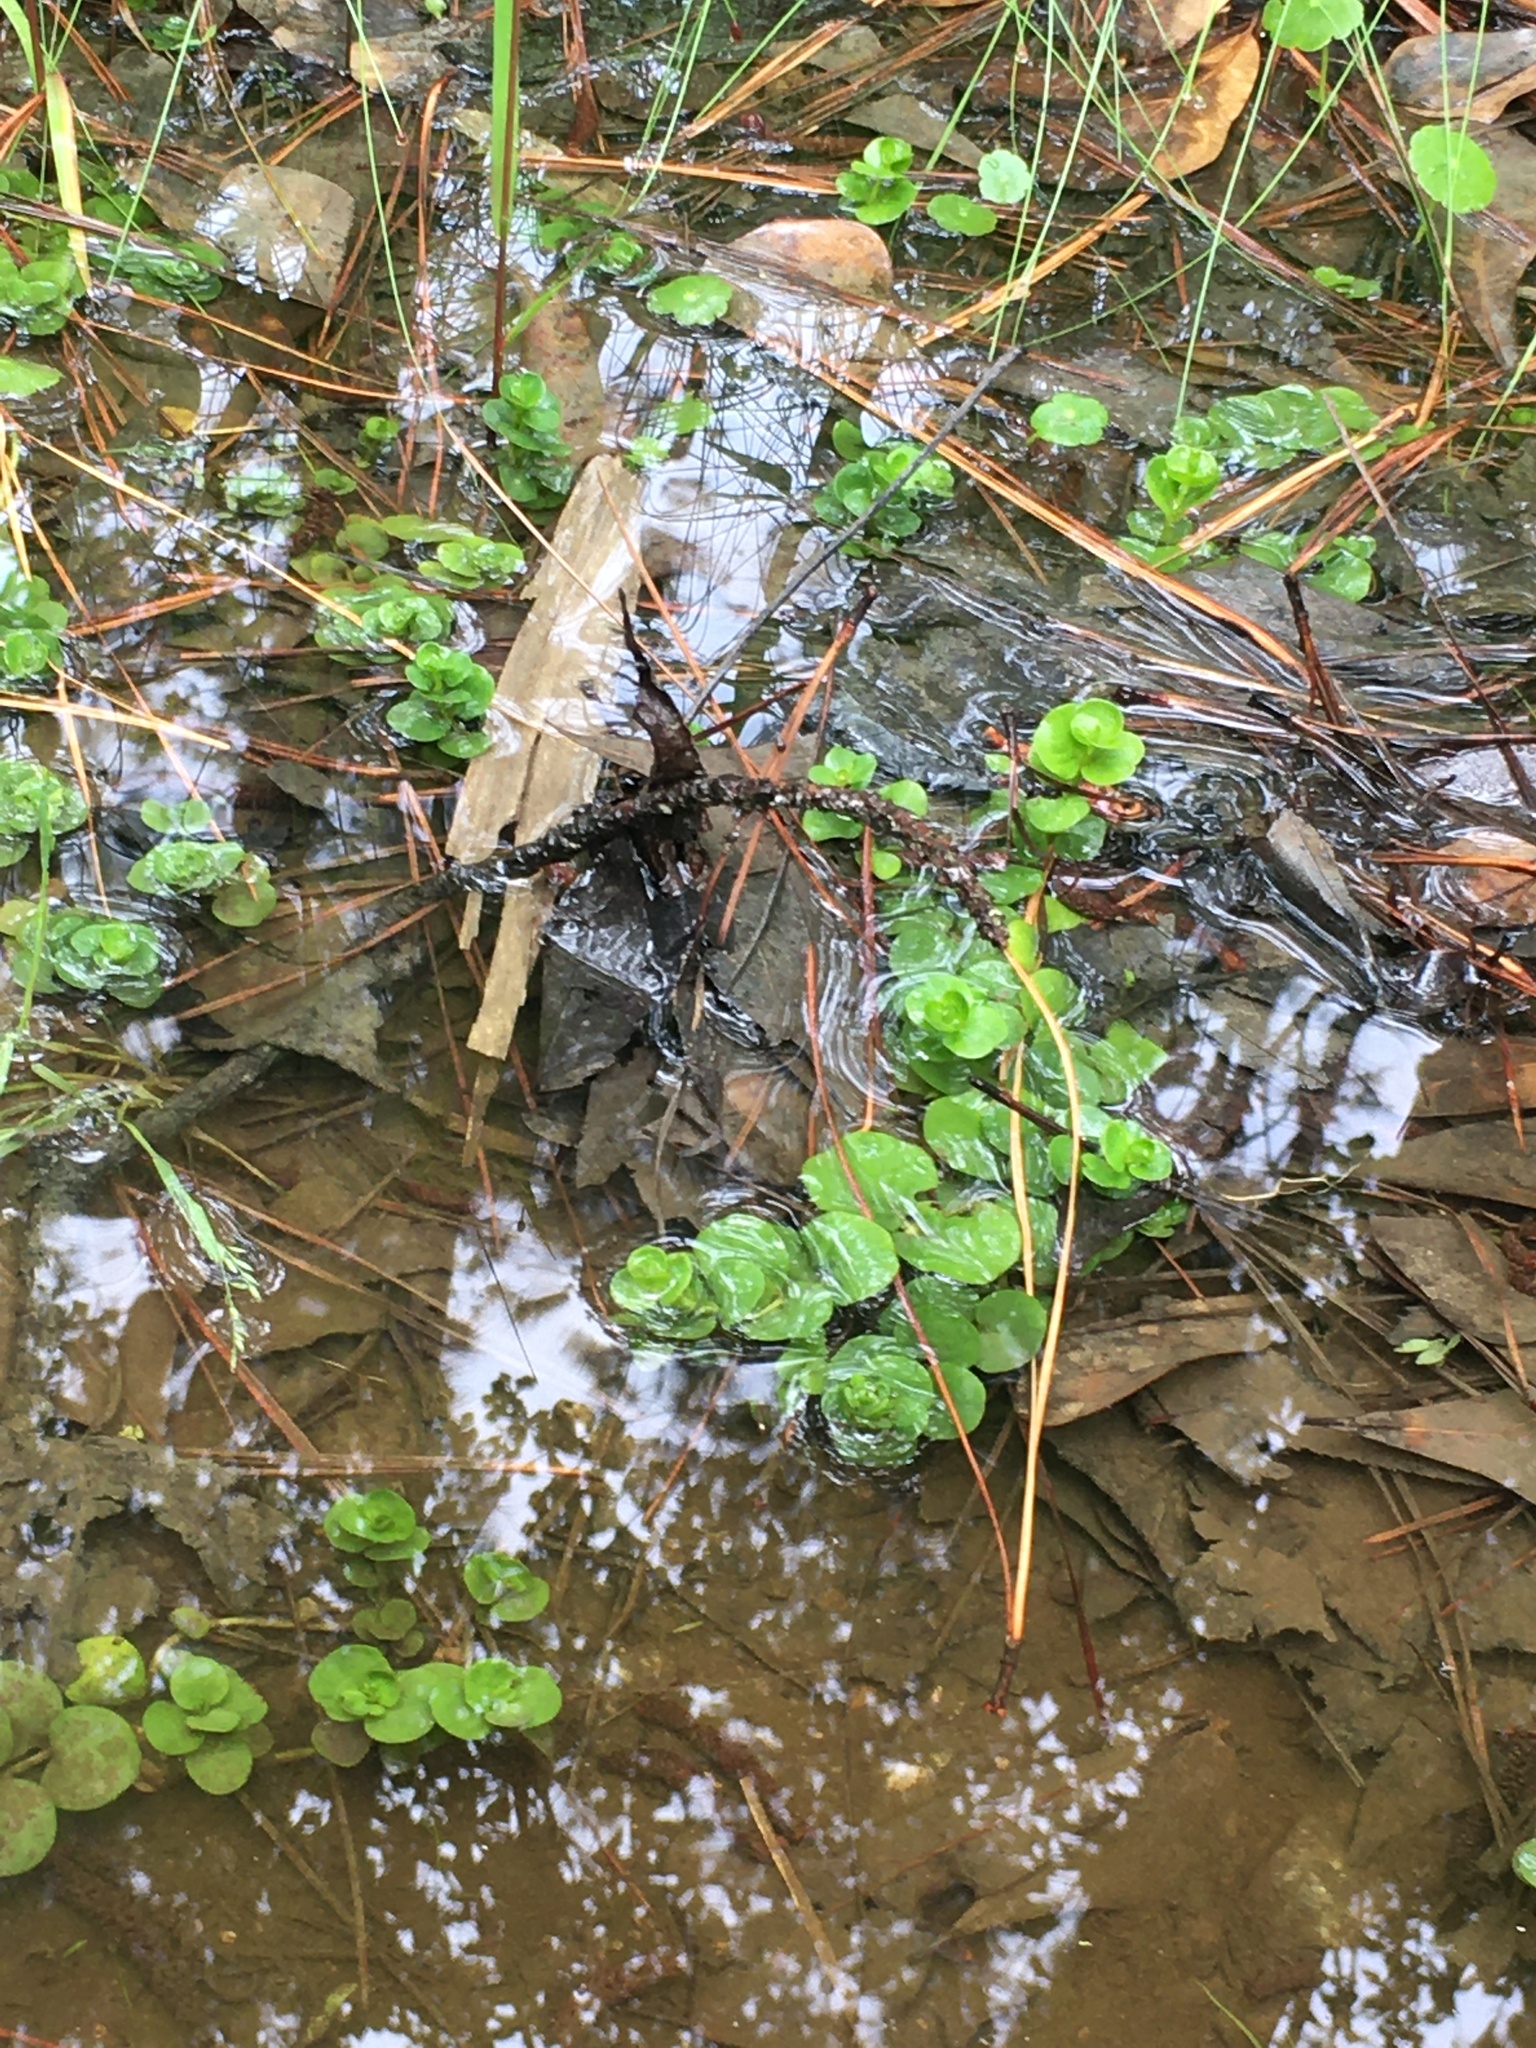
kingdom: Plantae
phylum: Tracheophyta
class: Magnoliopsida
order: Ericales
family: Primulaceae
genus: Lysimachia
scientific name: Lysimachia nummularia
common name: Moneywort
